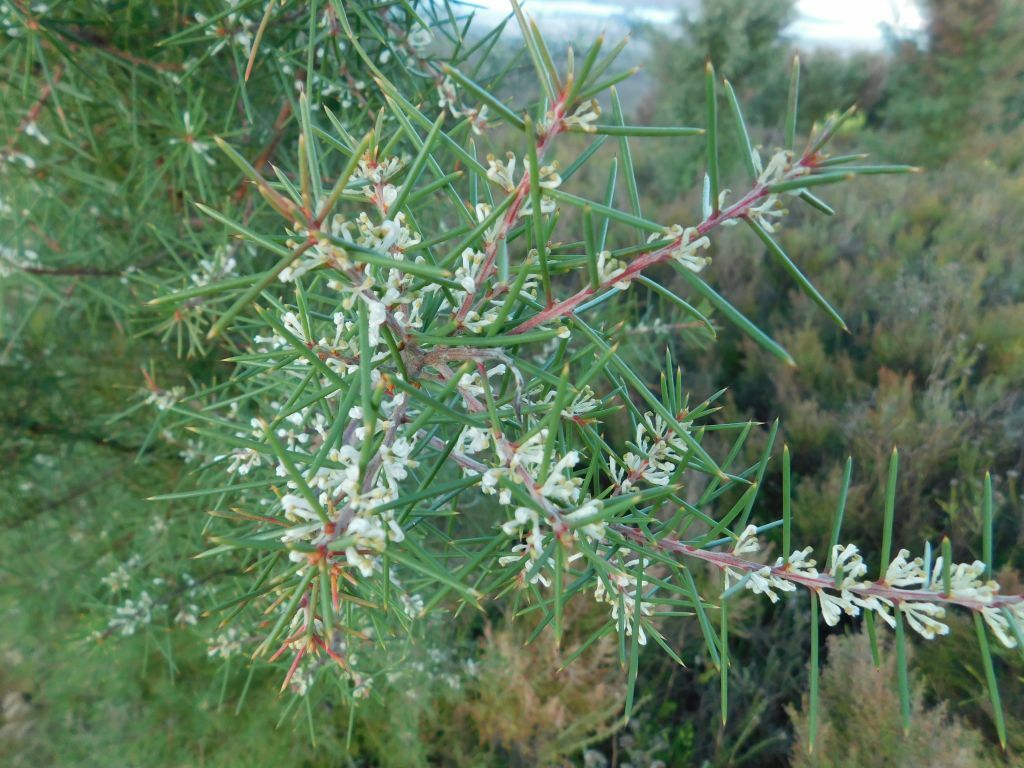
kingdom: Plantae
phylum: Tracheophyta
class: Magnoliopsida
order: Proteales
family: Proteaceae
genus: Hakea
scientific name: Hakea sericea
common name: Needle bush
